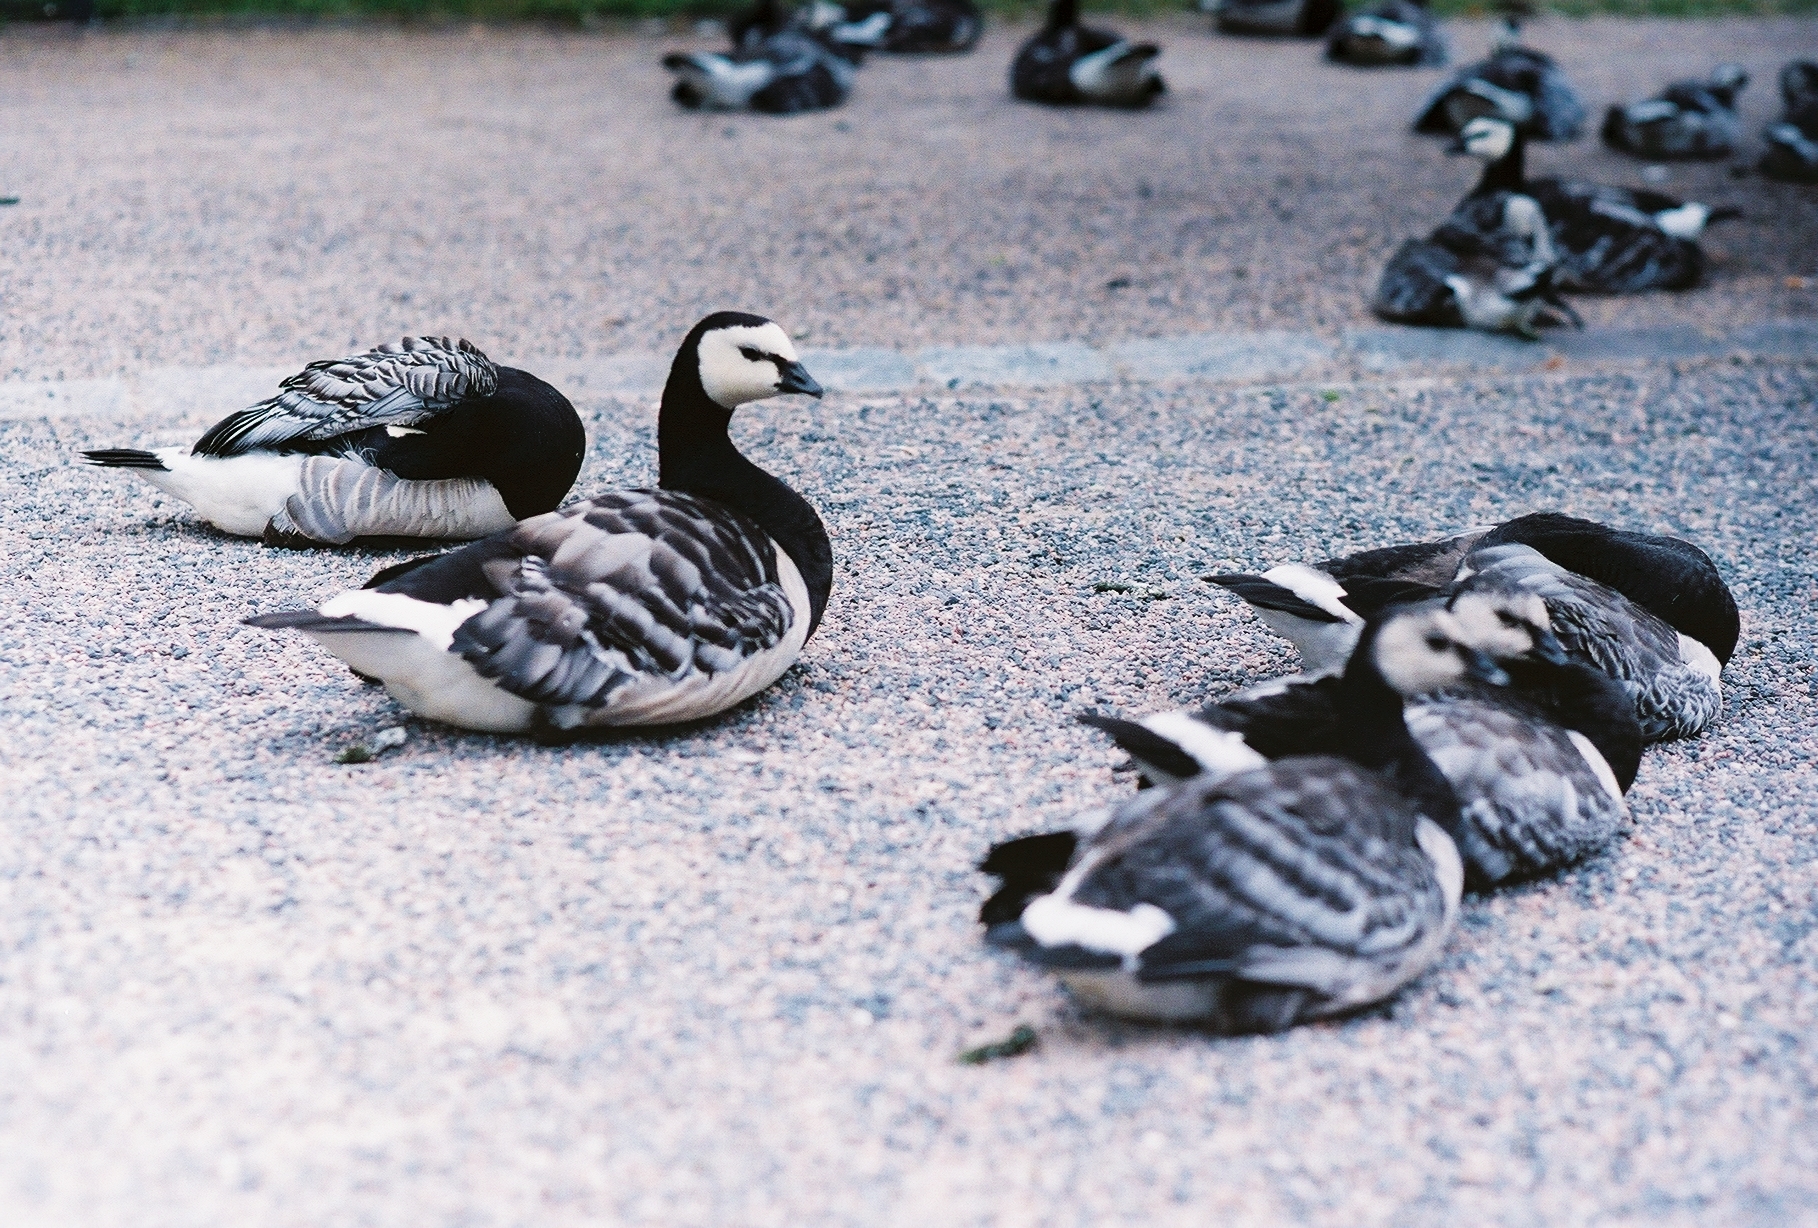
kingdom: Animalia
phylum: Chordata
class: Aves
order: Anseriformes
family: Anatidae
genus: Branta
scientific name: Branta leucopsis
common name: Barnacle goose
